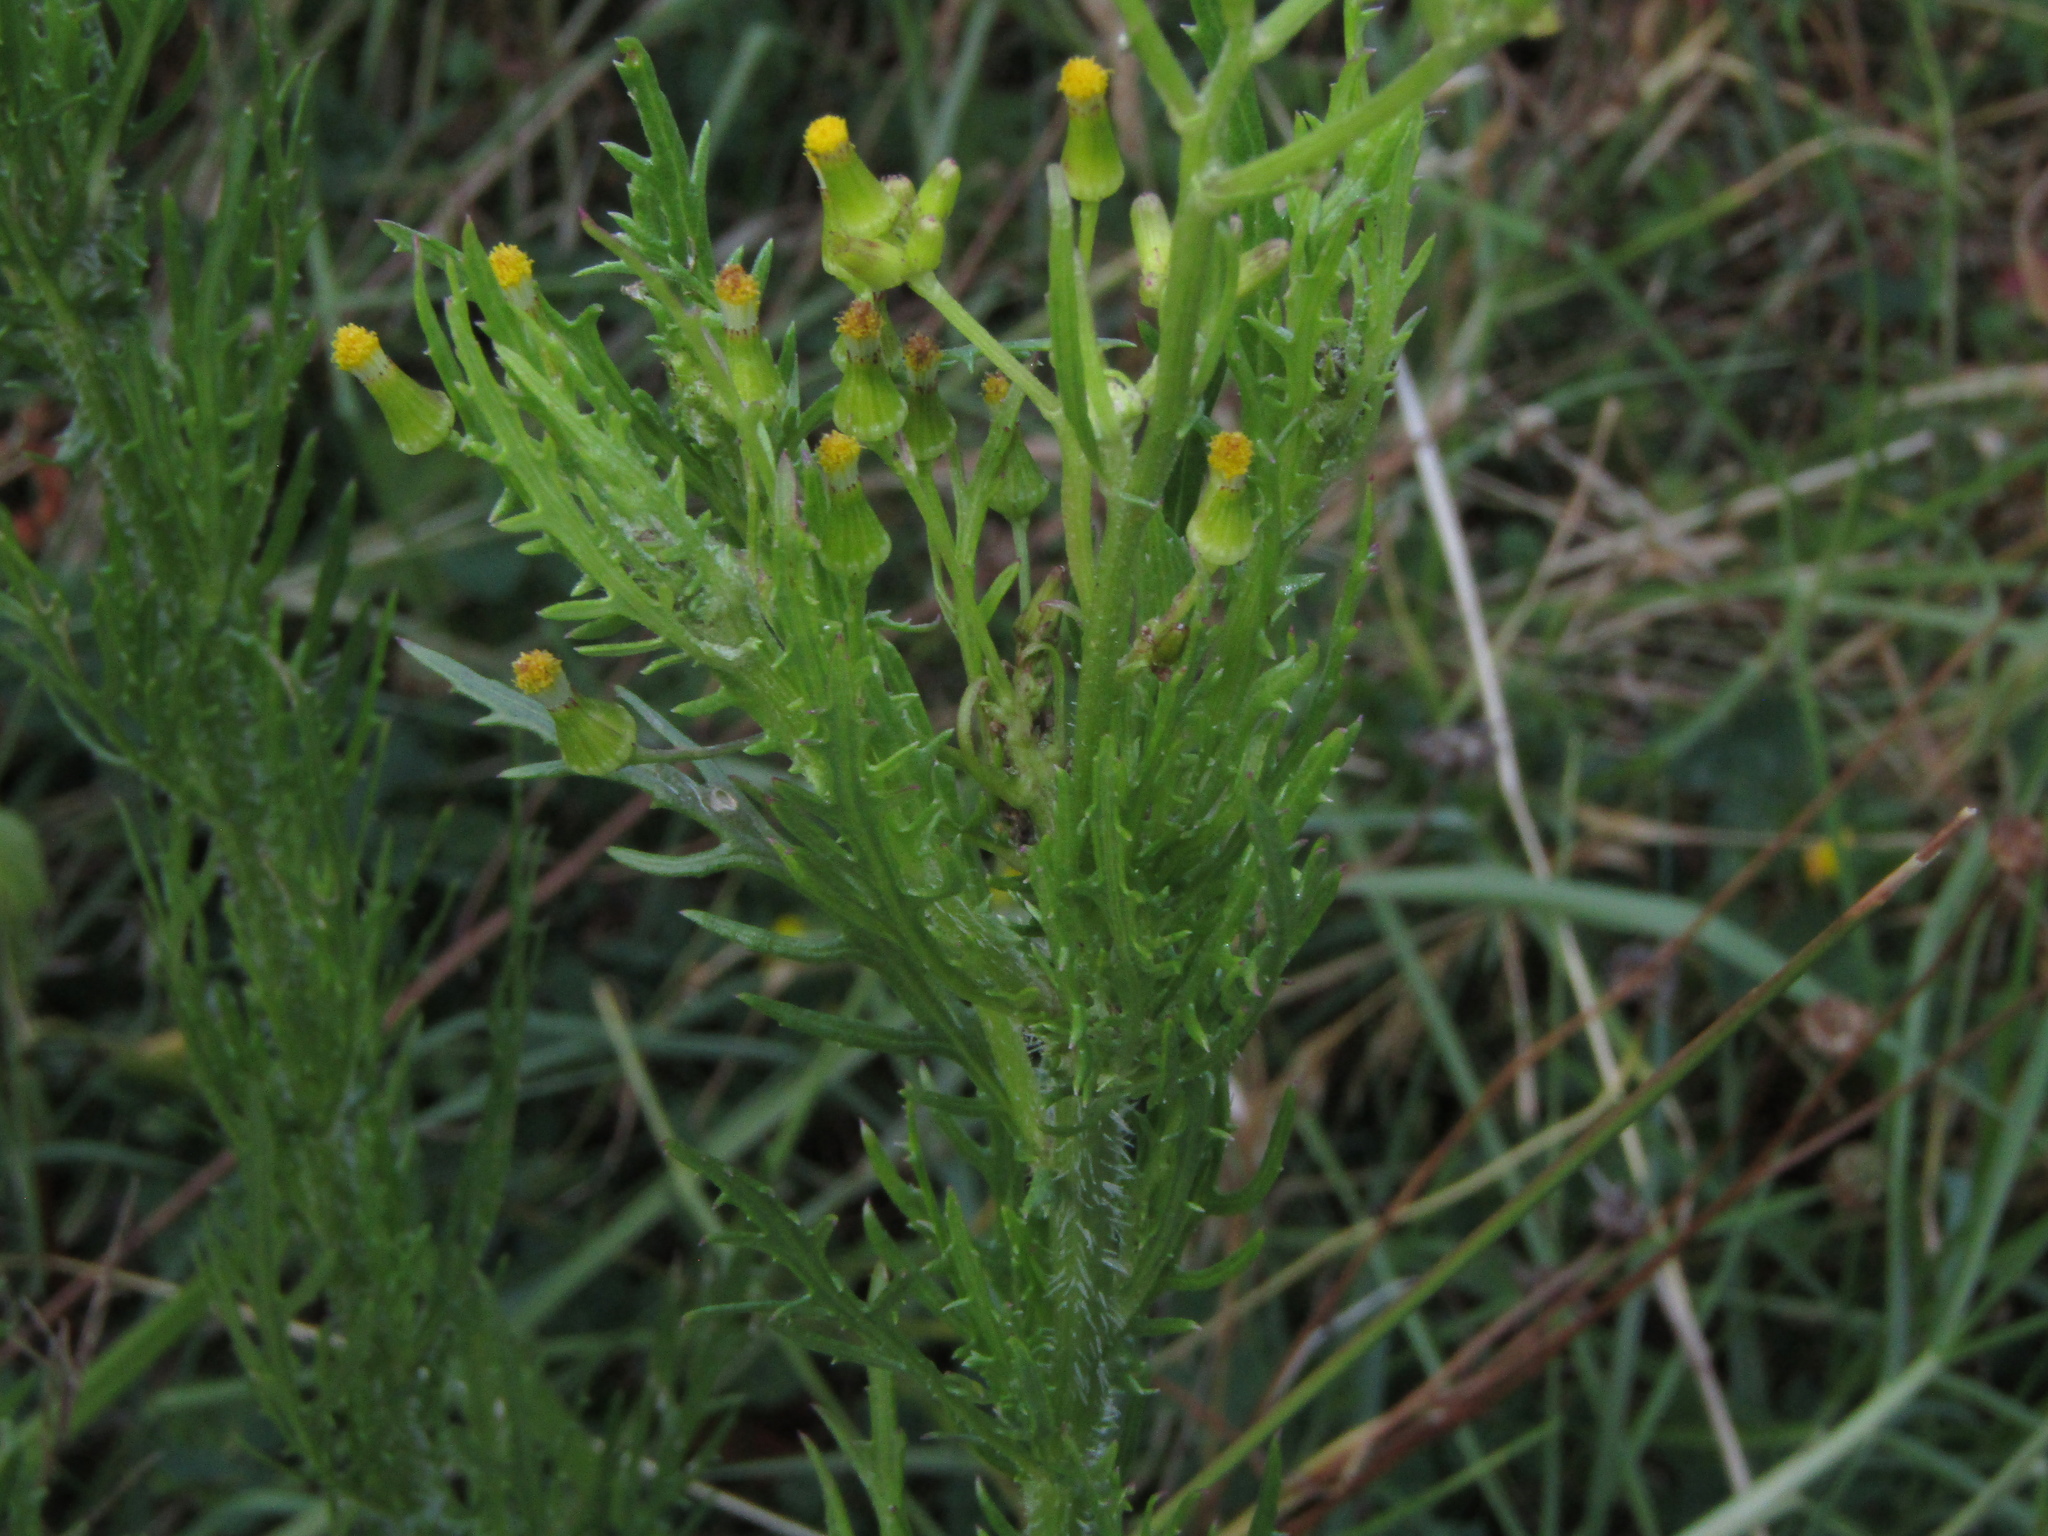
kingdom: Plantae
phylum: Tracheophyta
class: Magnoliopsida
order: Asterales
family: Asteraceae
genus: Senecio
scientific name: Senecio esleri
